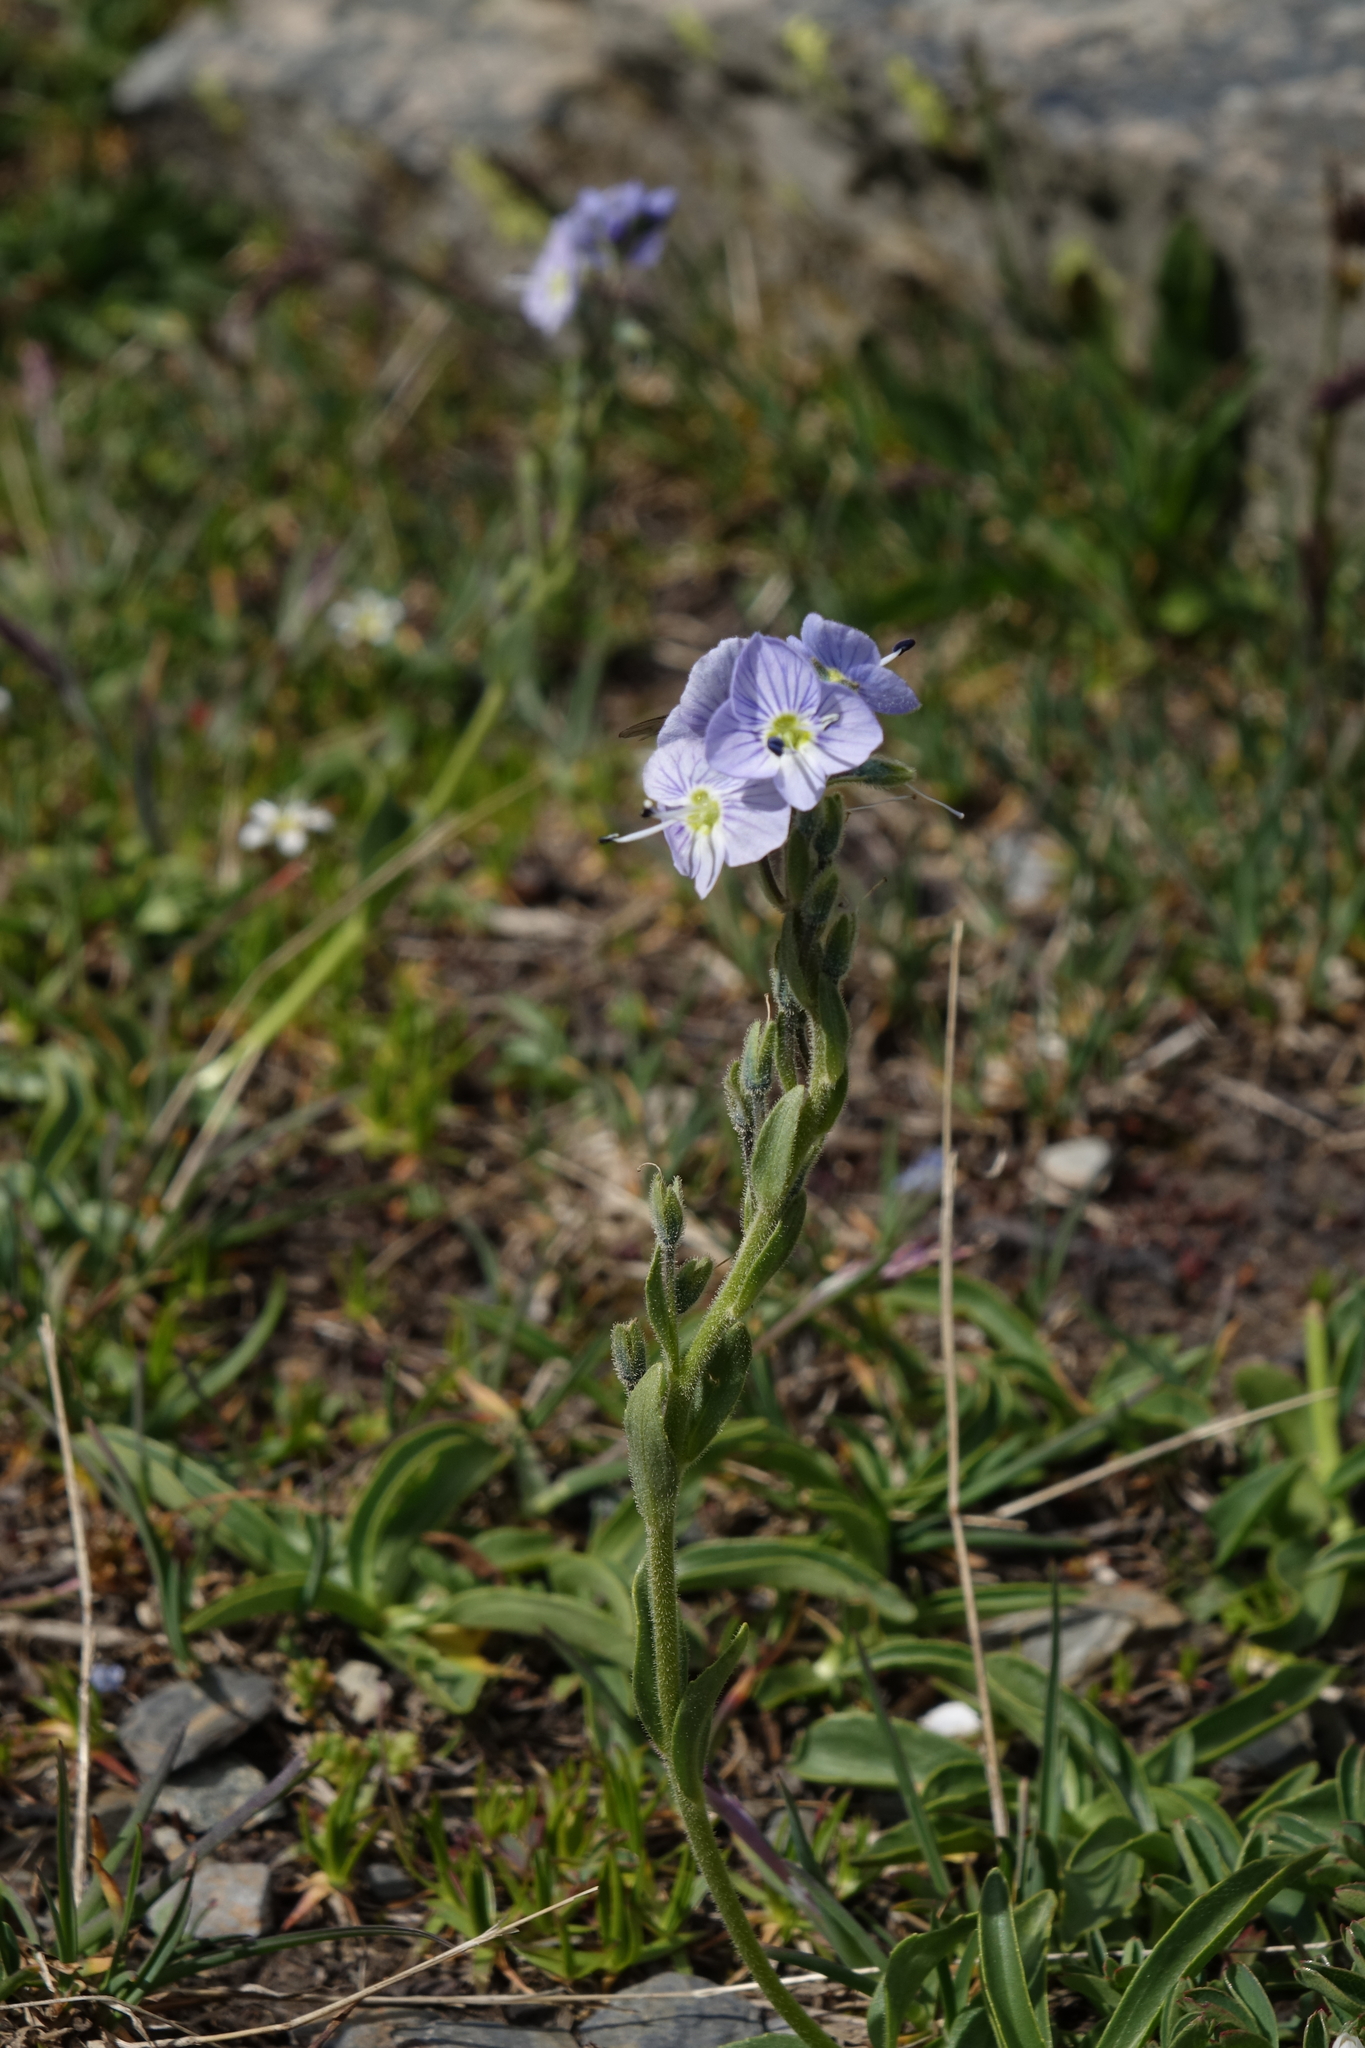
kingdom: Plantae
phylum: Tracheophyta
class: Magnoliopsida
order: Lamiales
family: Plantaginaceae
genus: Veronica
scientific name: Veronica gentianoides
